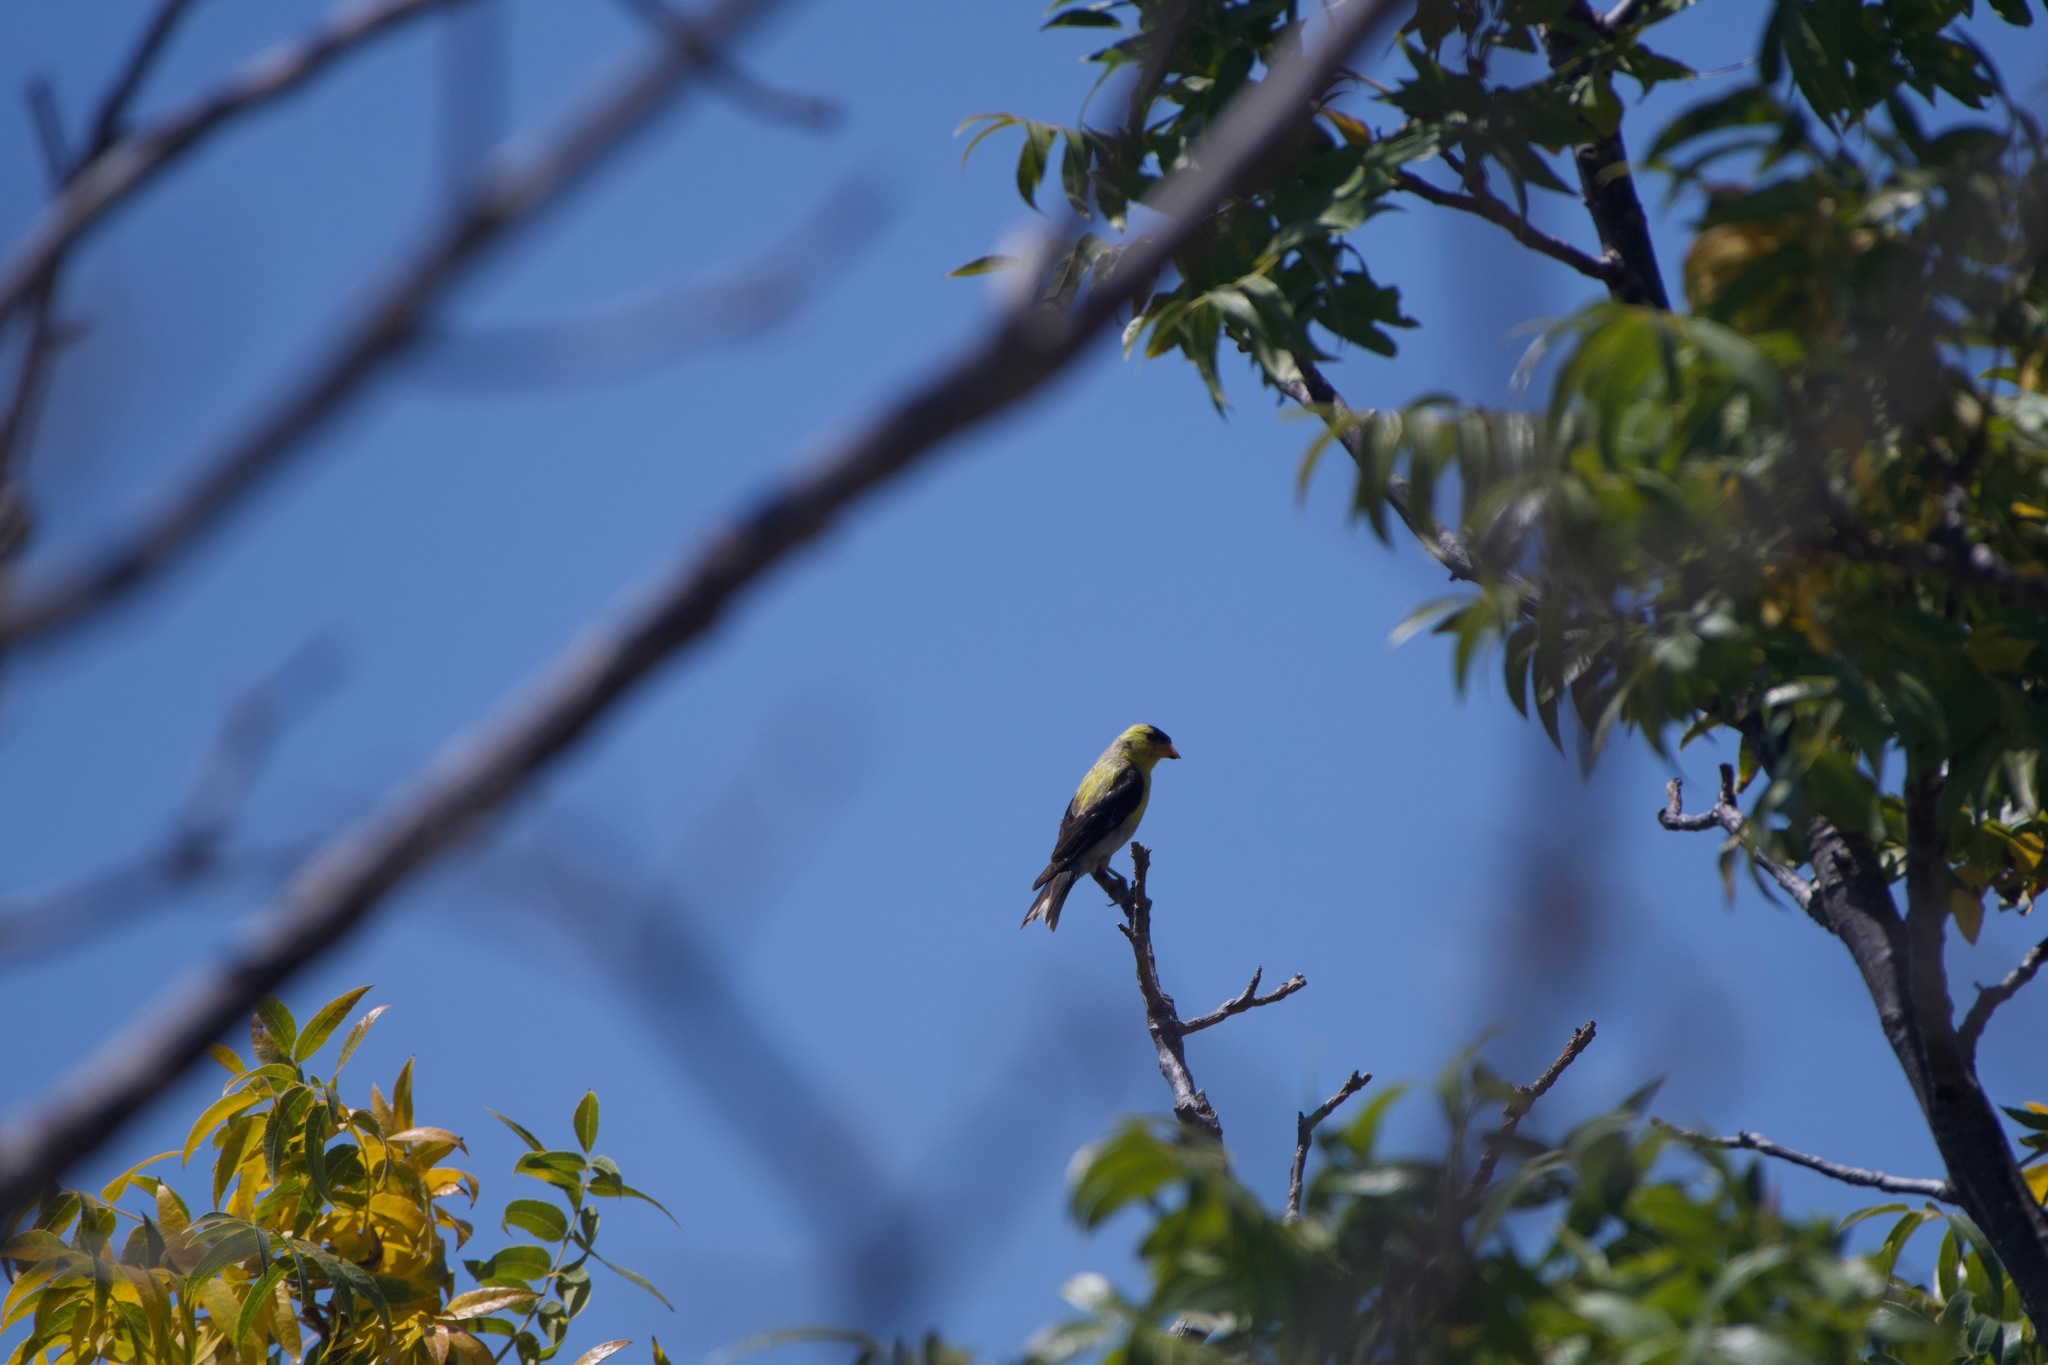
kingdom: Animalia
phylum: Chordata
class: Aves
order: Passeriformes
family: Fringillidae
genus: Spinus
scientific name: Spinus tristis
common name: American goldfinch
